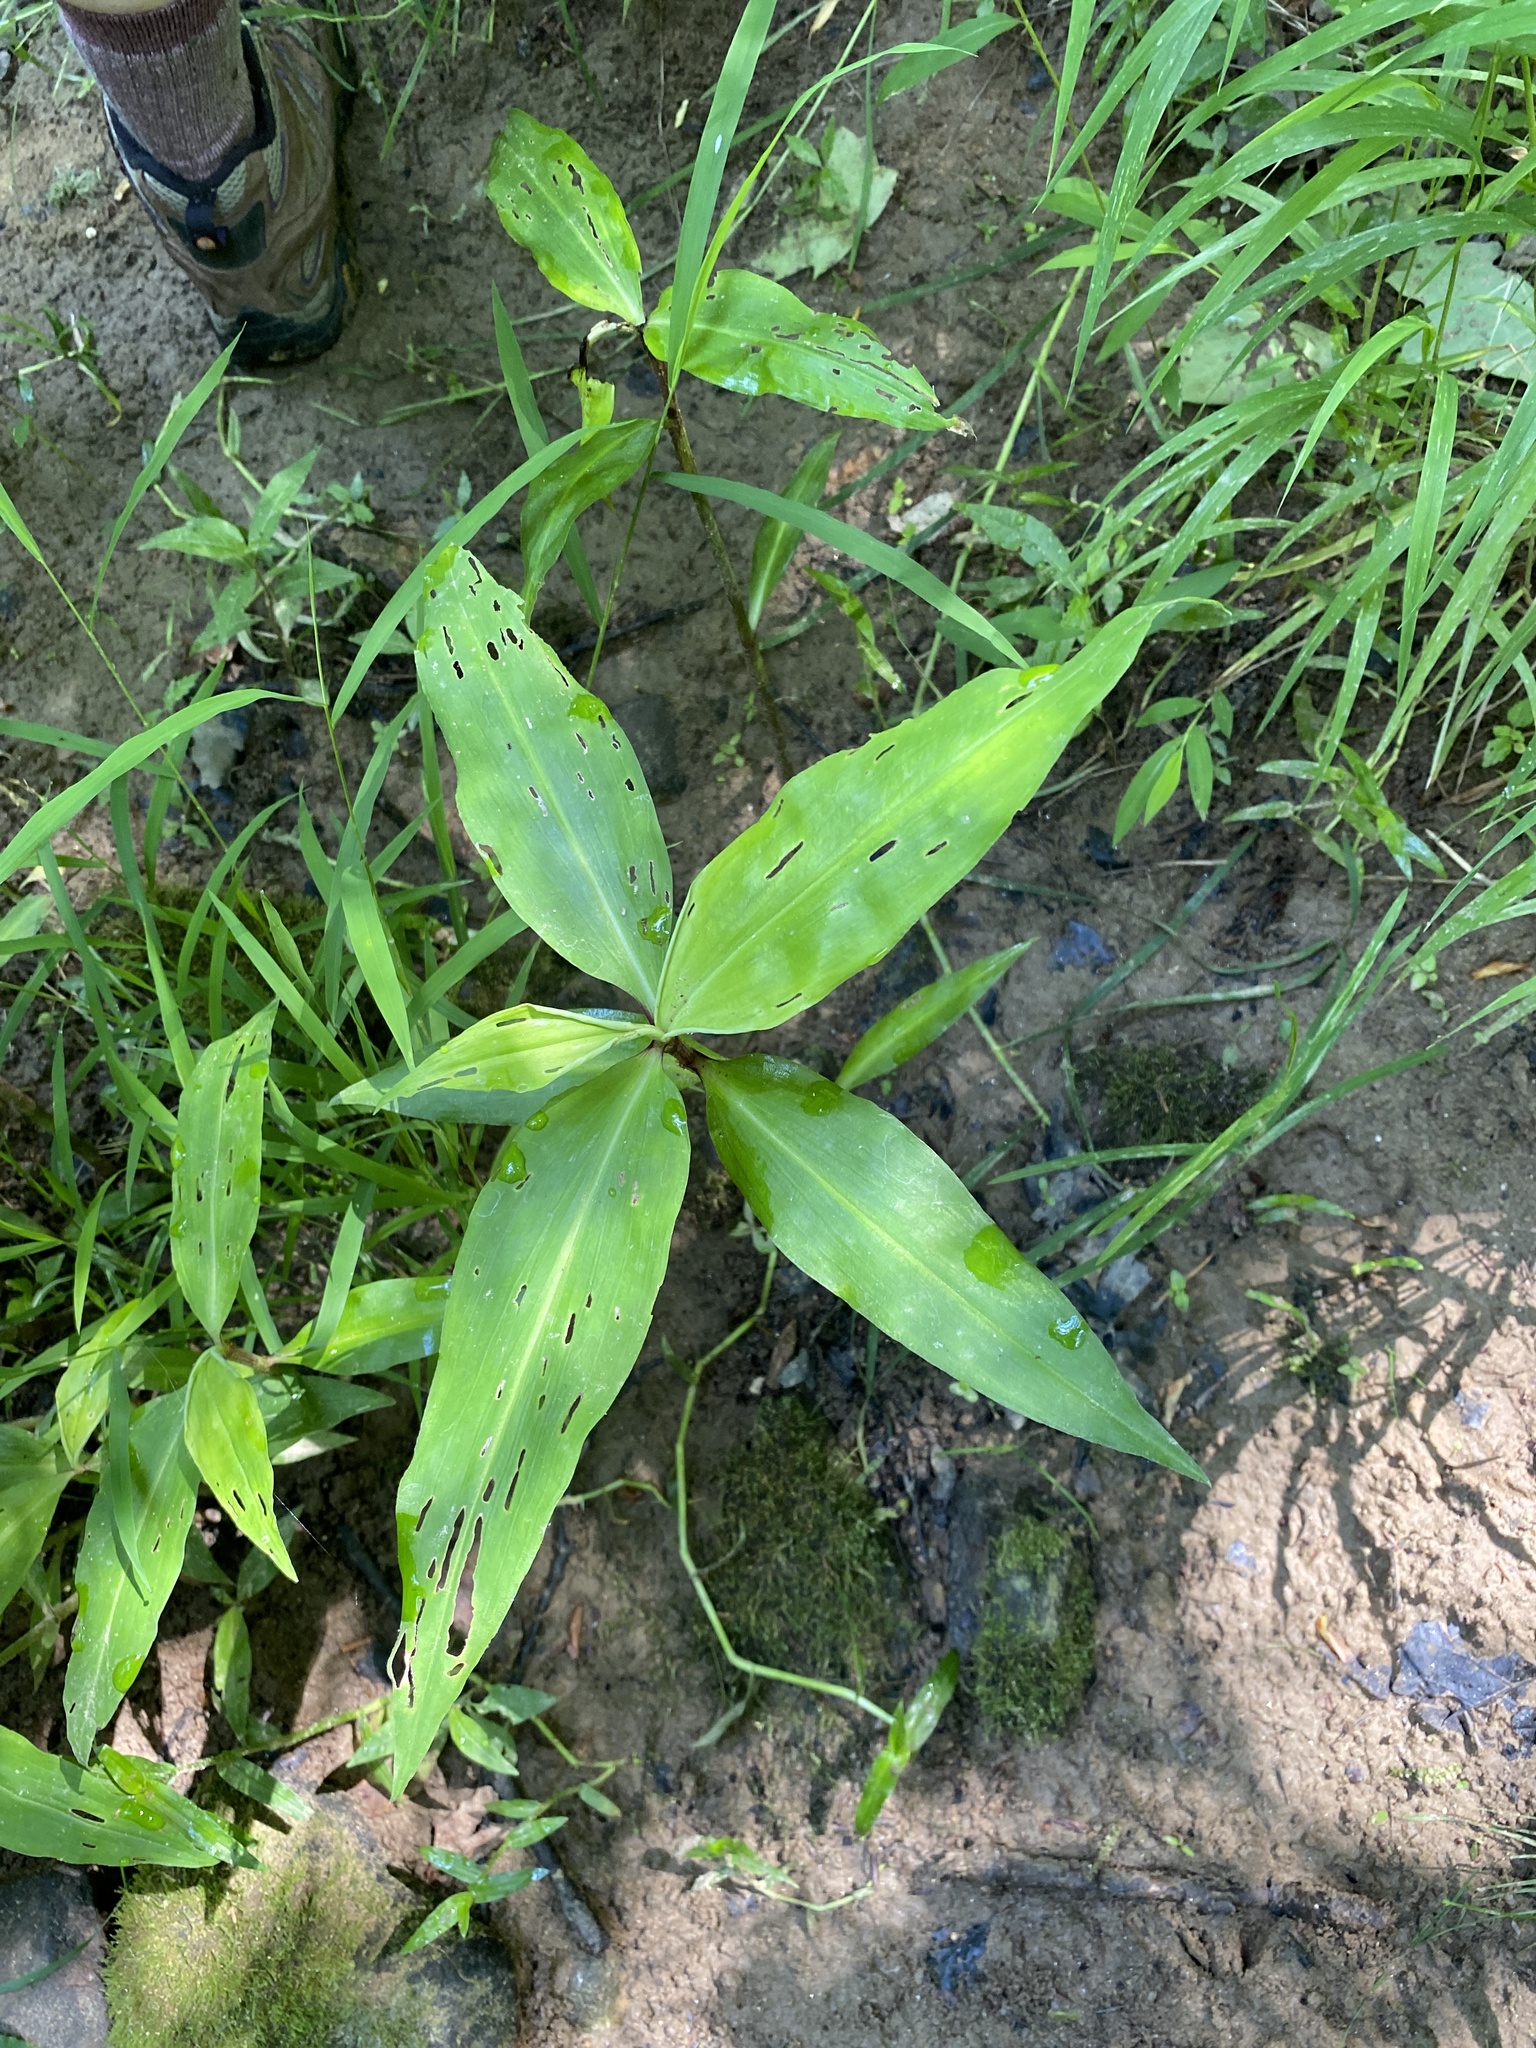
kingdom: Plantae
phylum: Tracheophyta
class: Liliopsida
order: Commelinales
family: Commelinaceae
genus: Commelina
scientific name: Commelina virginica
